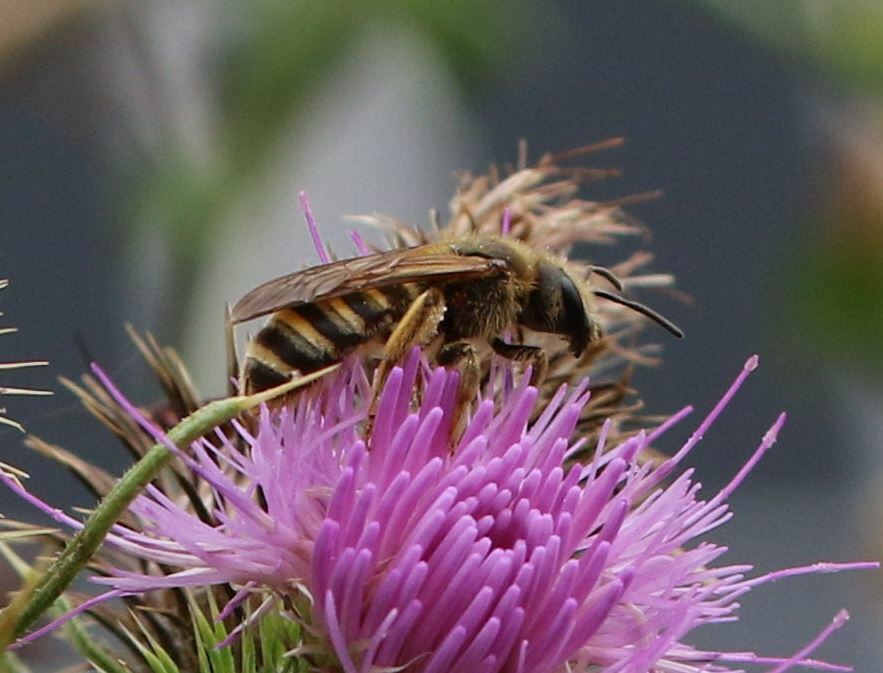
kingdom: Animalia
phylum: Arthropoda
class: Insecta
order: Hymenoptera
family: Halictidae
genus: Halictus
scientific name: Halictus scabiosae
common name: Great banded furrow bee
